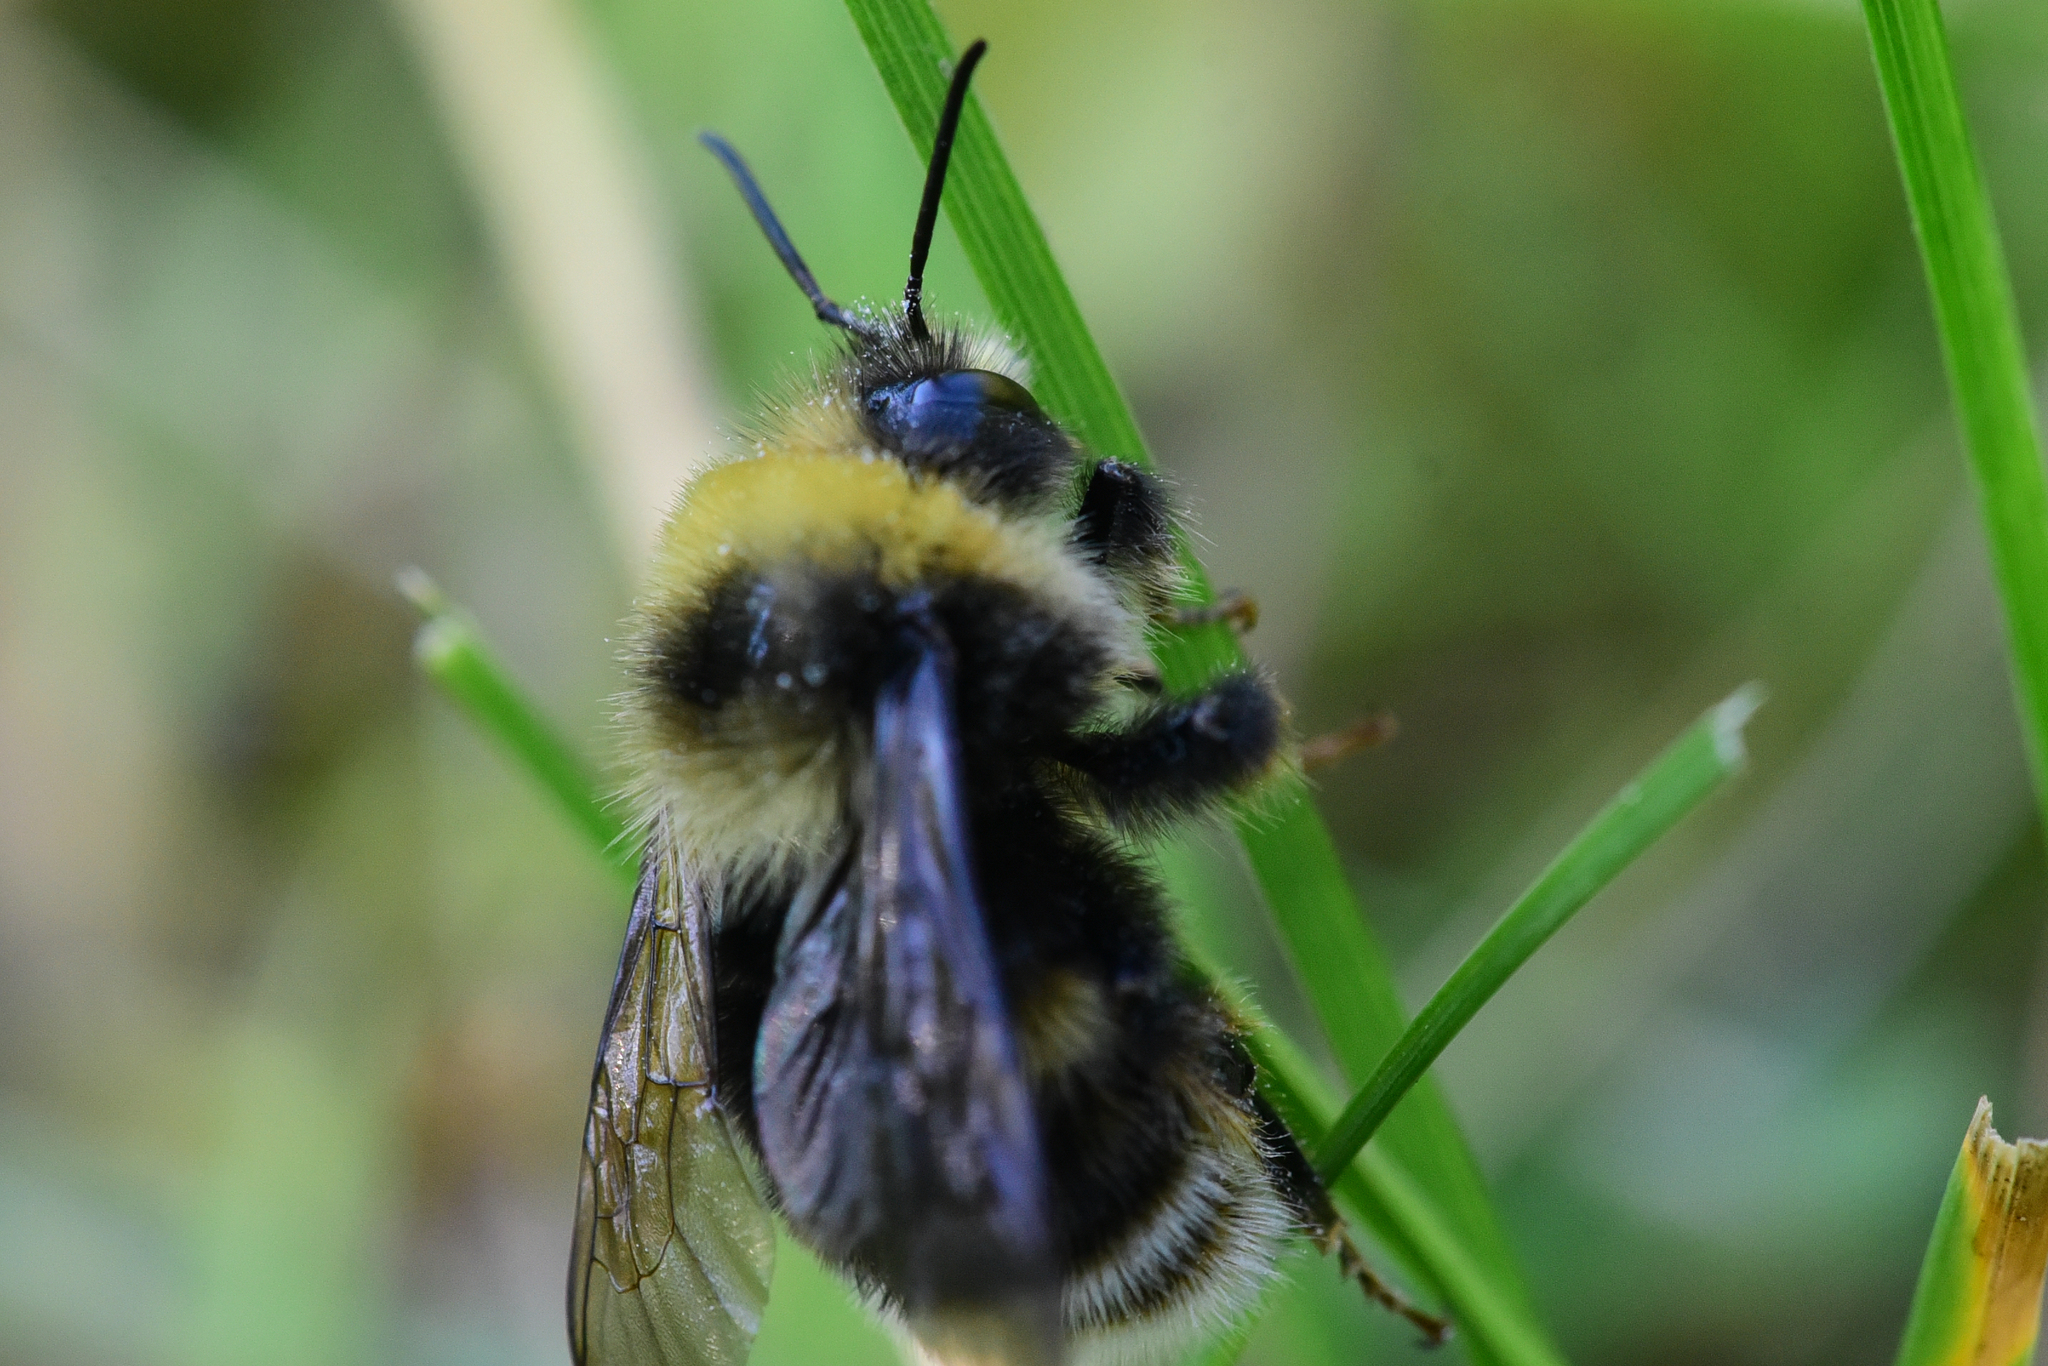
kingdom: Animalia
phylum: Arthropoda
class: Insecta
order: Hymenoptera
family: Apidae
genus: Bombus
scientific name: Bombus occidentalis
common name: Western bumble bee
